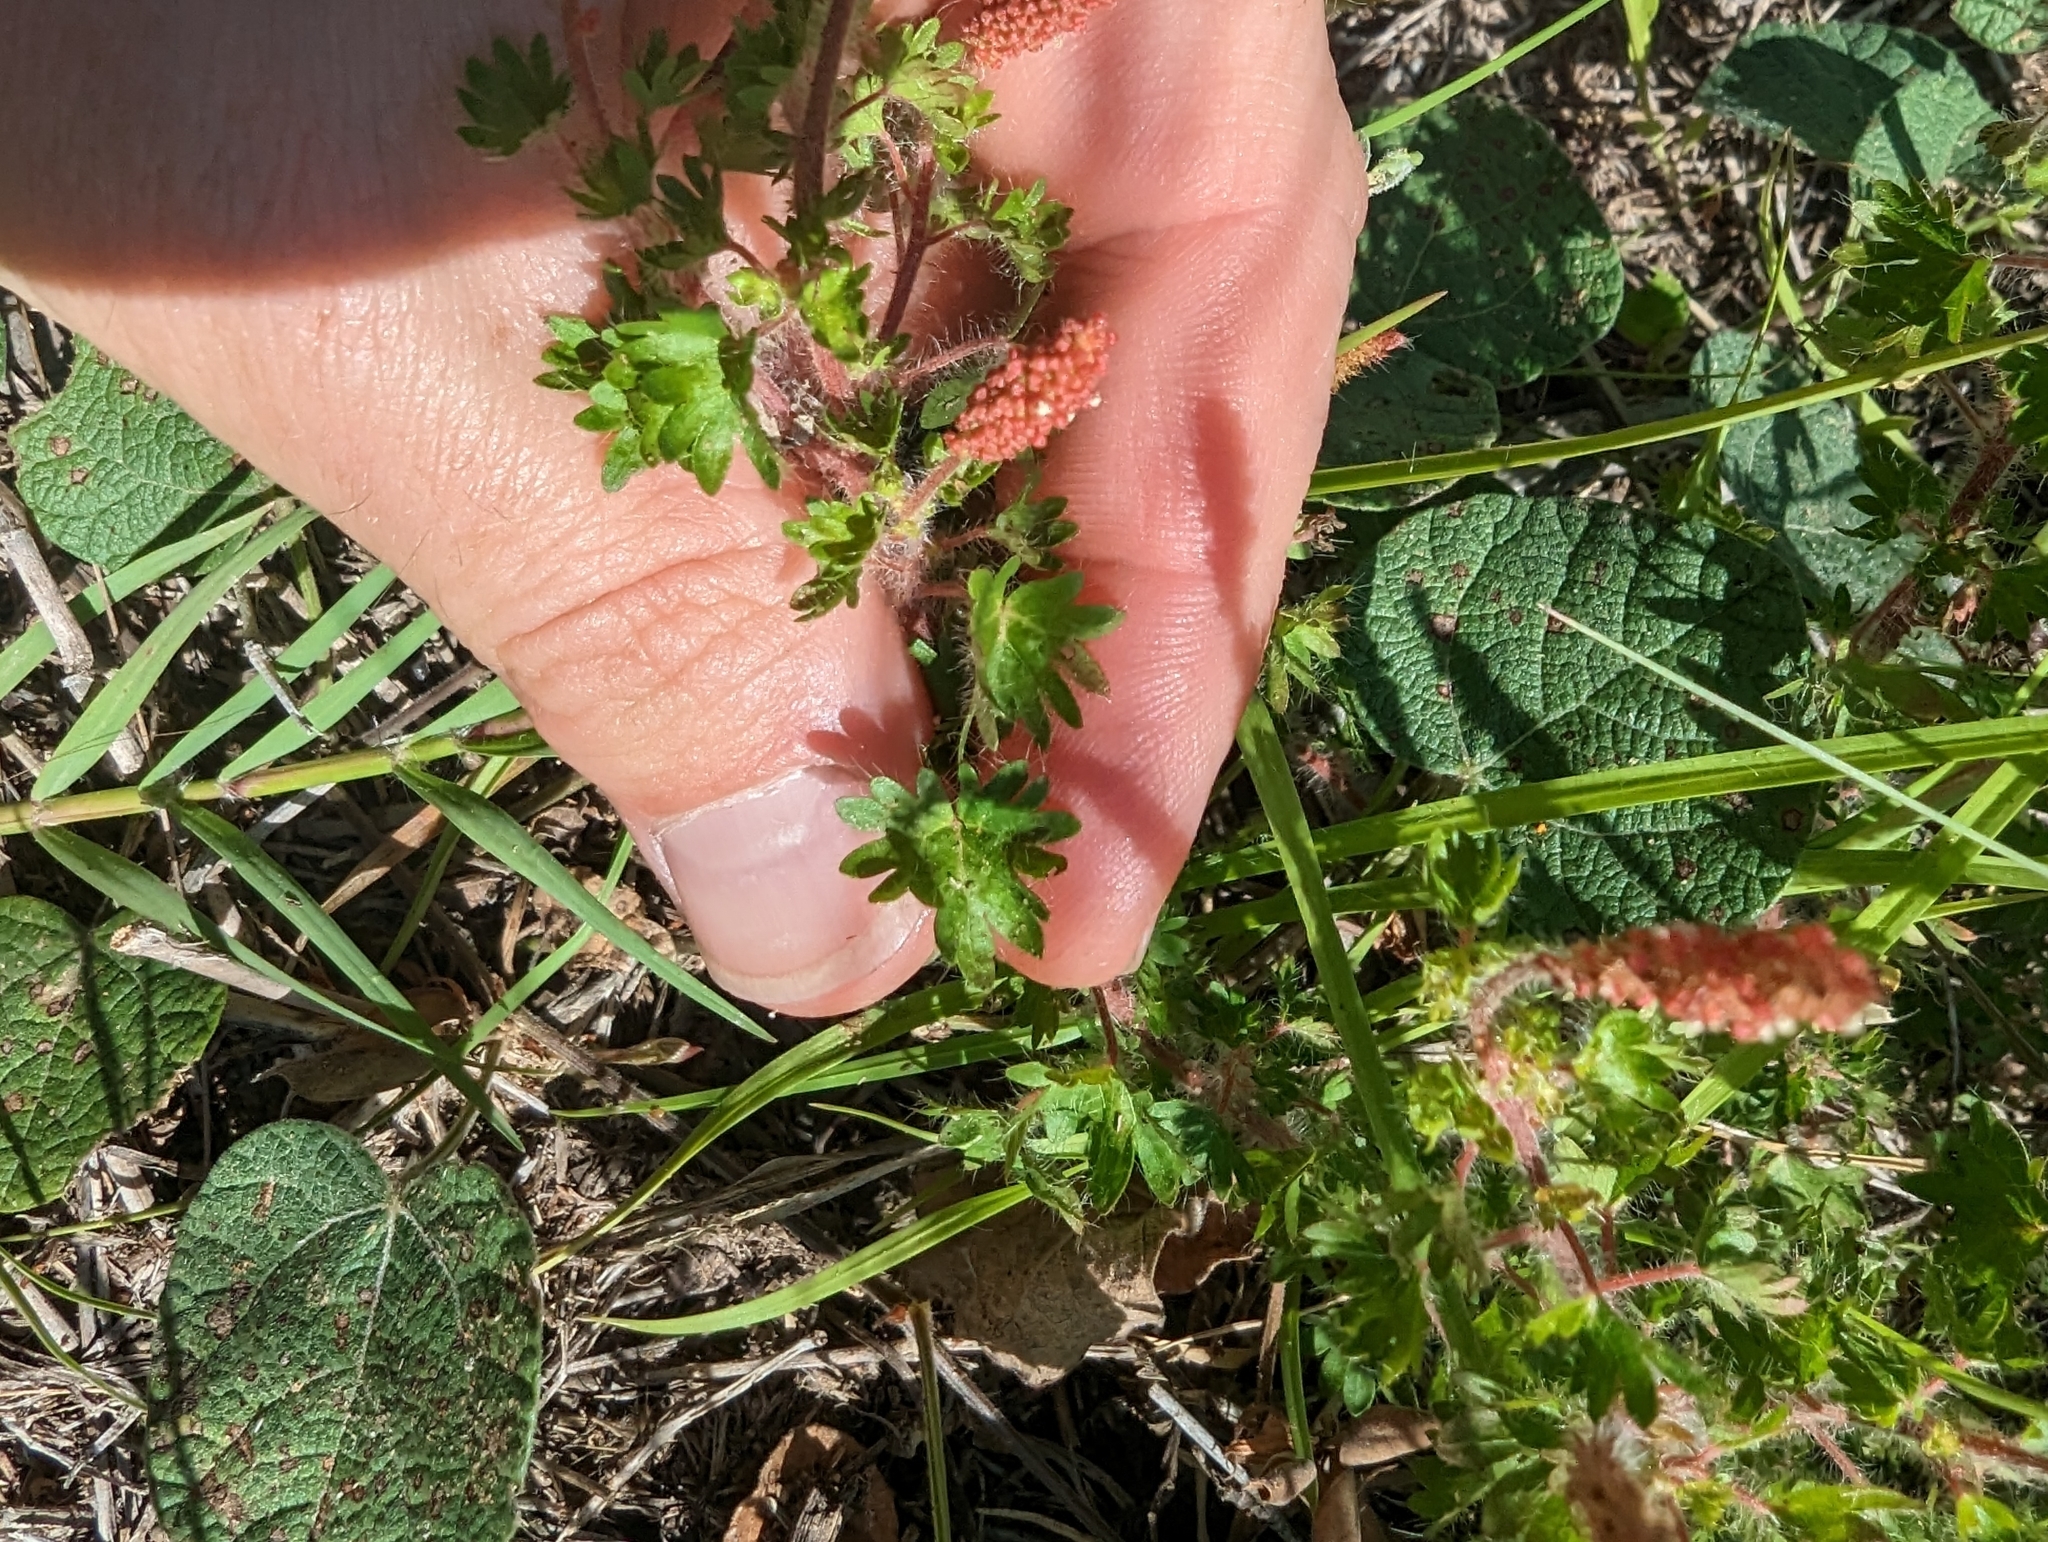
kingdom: Plantae
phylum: Tracheophyta
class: Magnoliopsida
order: Malpighiales
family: Euphorbiaceae
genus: Acalypha
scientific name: Acalypha radians
